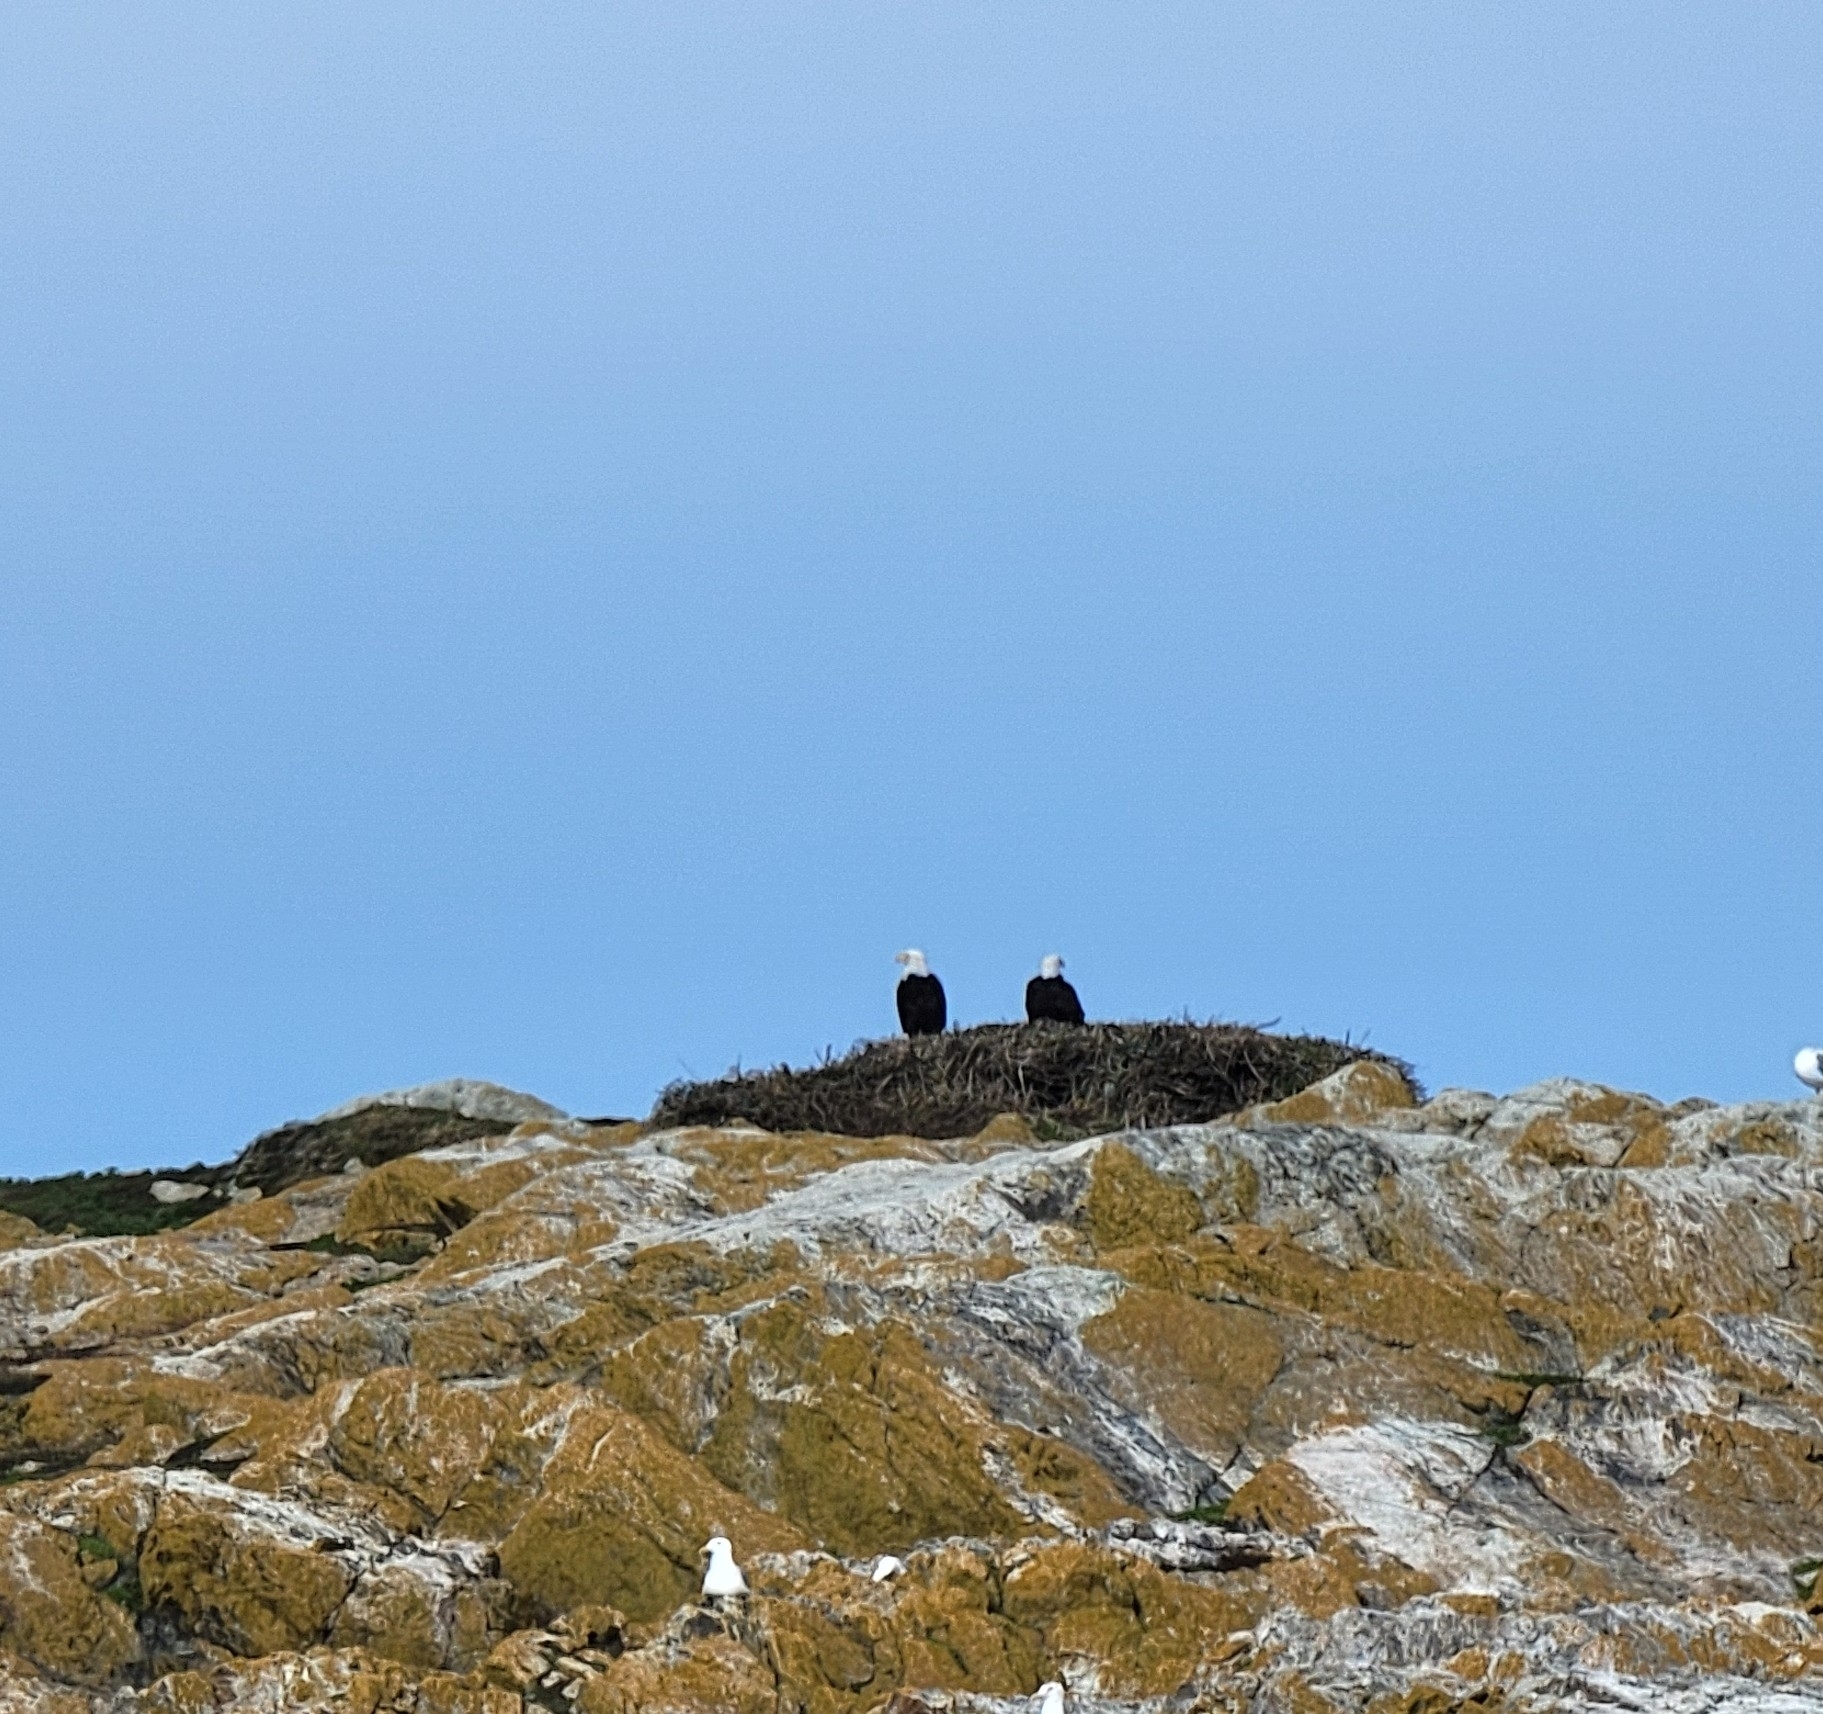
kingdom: Animalia
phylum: Chordata
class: Aves
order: Accipitriformes
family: Accipitridae
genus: Haliaeetus
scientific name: Haliaeetus leucocephalus
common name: Bald eagle
